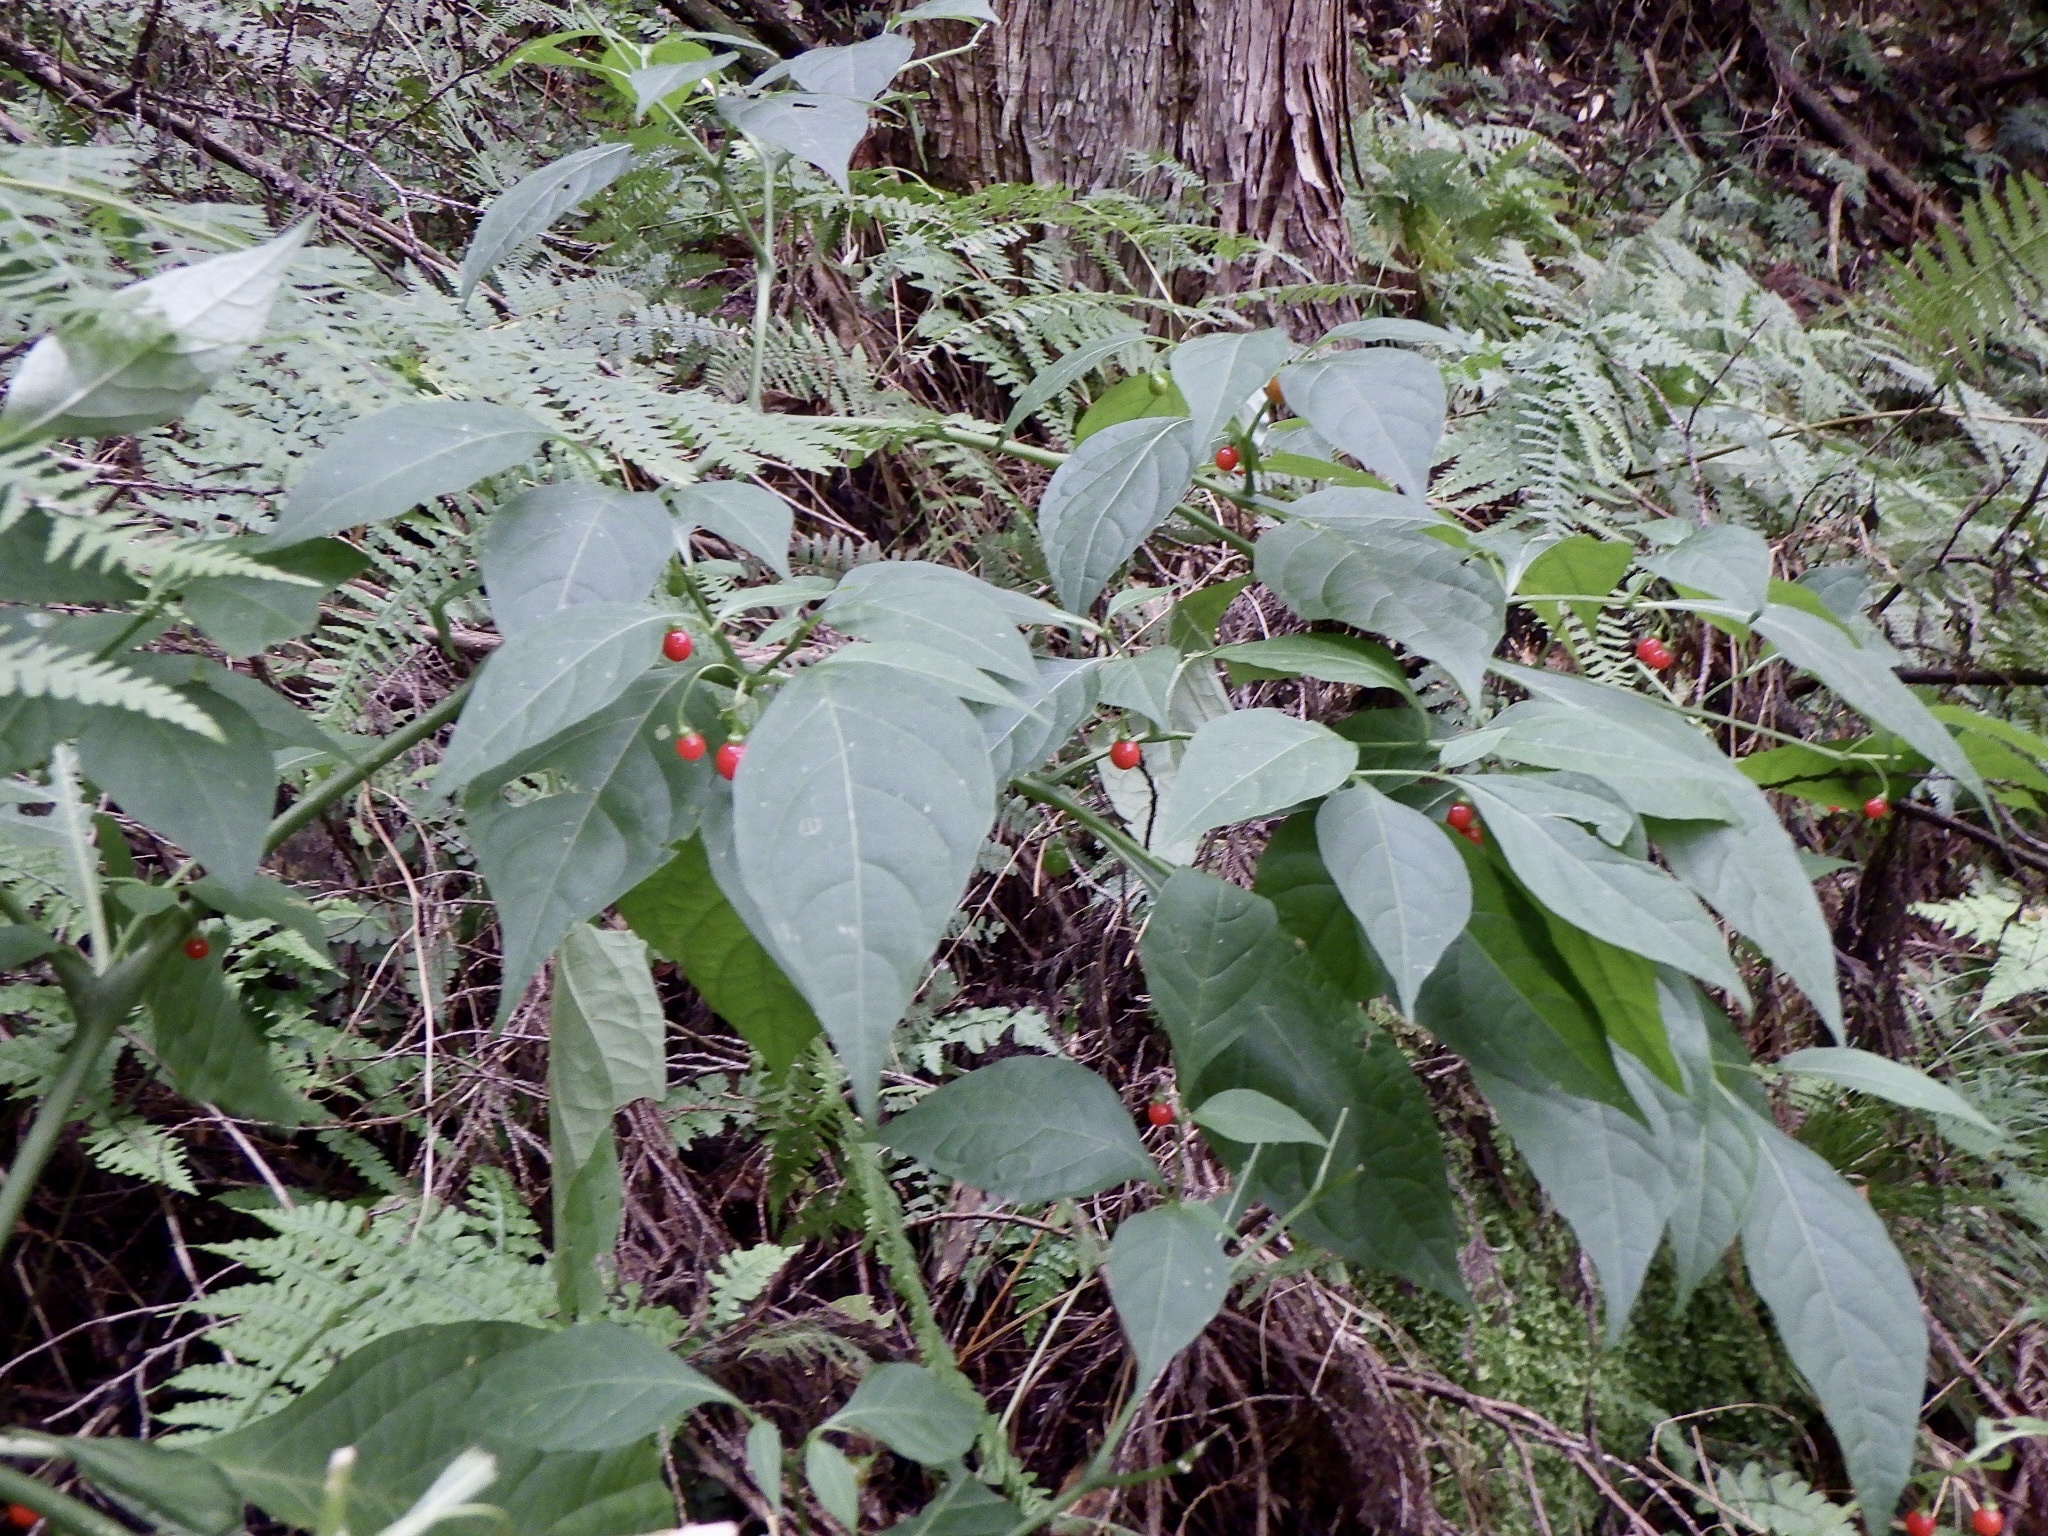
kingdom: Plantae
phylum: Tracheophyta
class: Magnoliopsida
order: Solanales
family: Solanaceae
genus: Tubocapsicum
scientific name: Tubocapsicum anomalum
